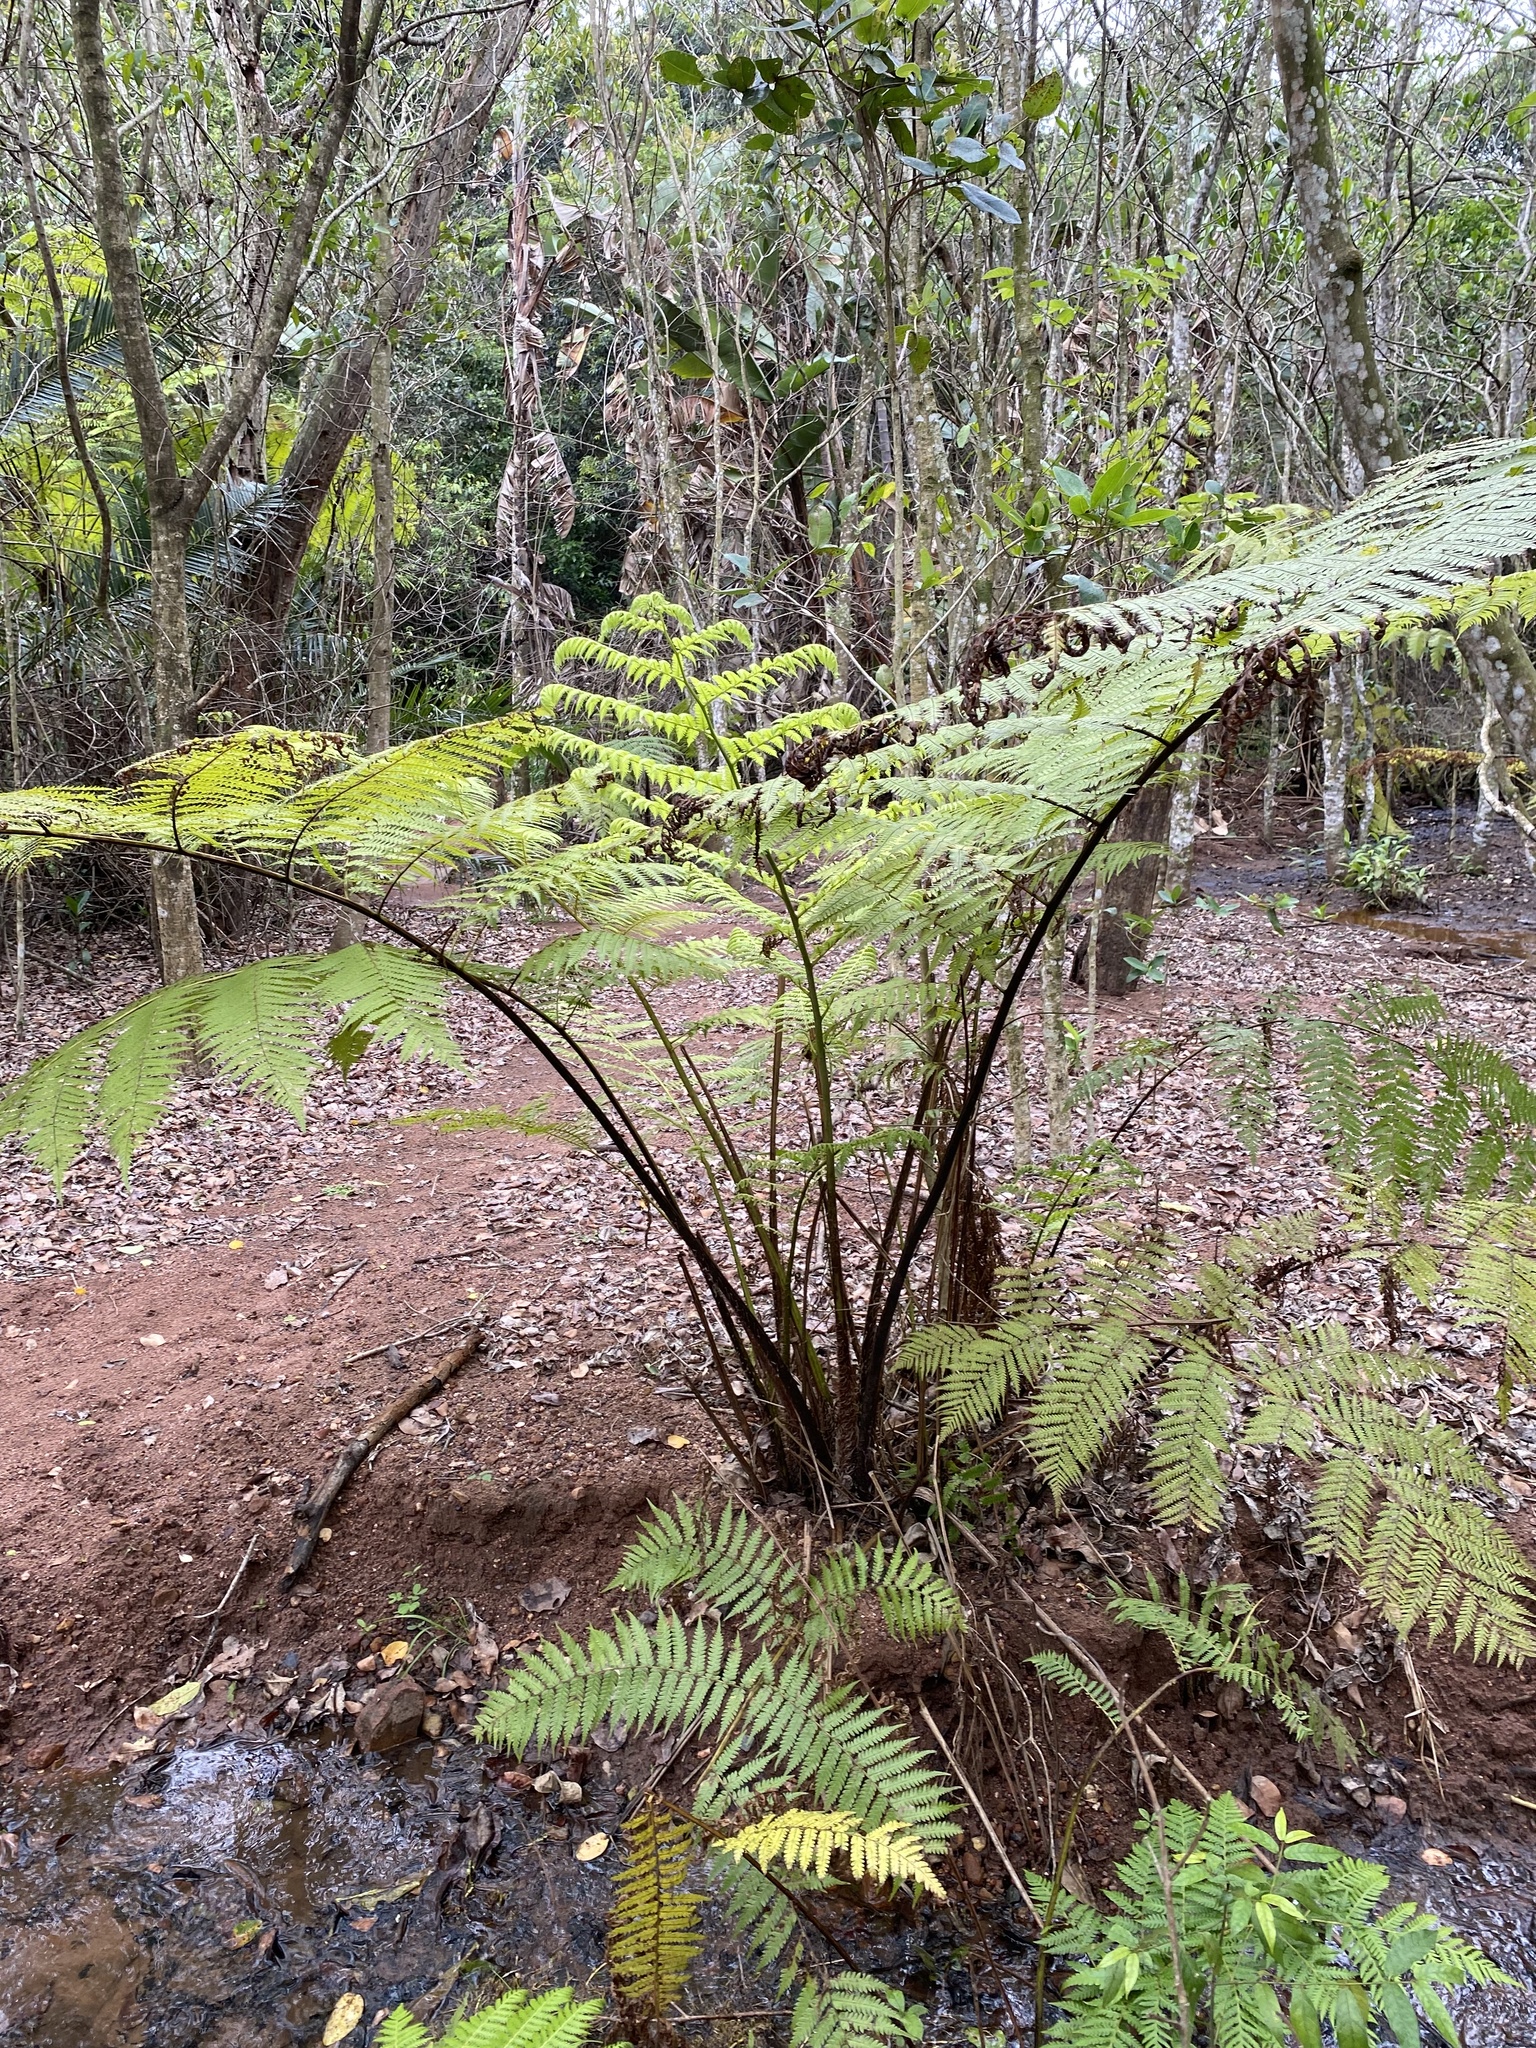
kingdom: Plantae
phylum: Tracheophyta
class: Polypodiopsida
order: Cyatheales
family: Cyatheaceae
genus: Sphaeropteris
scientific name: Sphaeropteris cooperi
